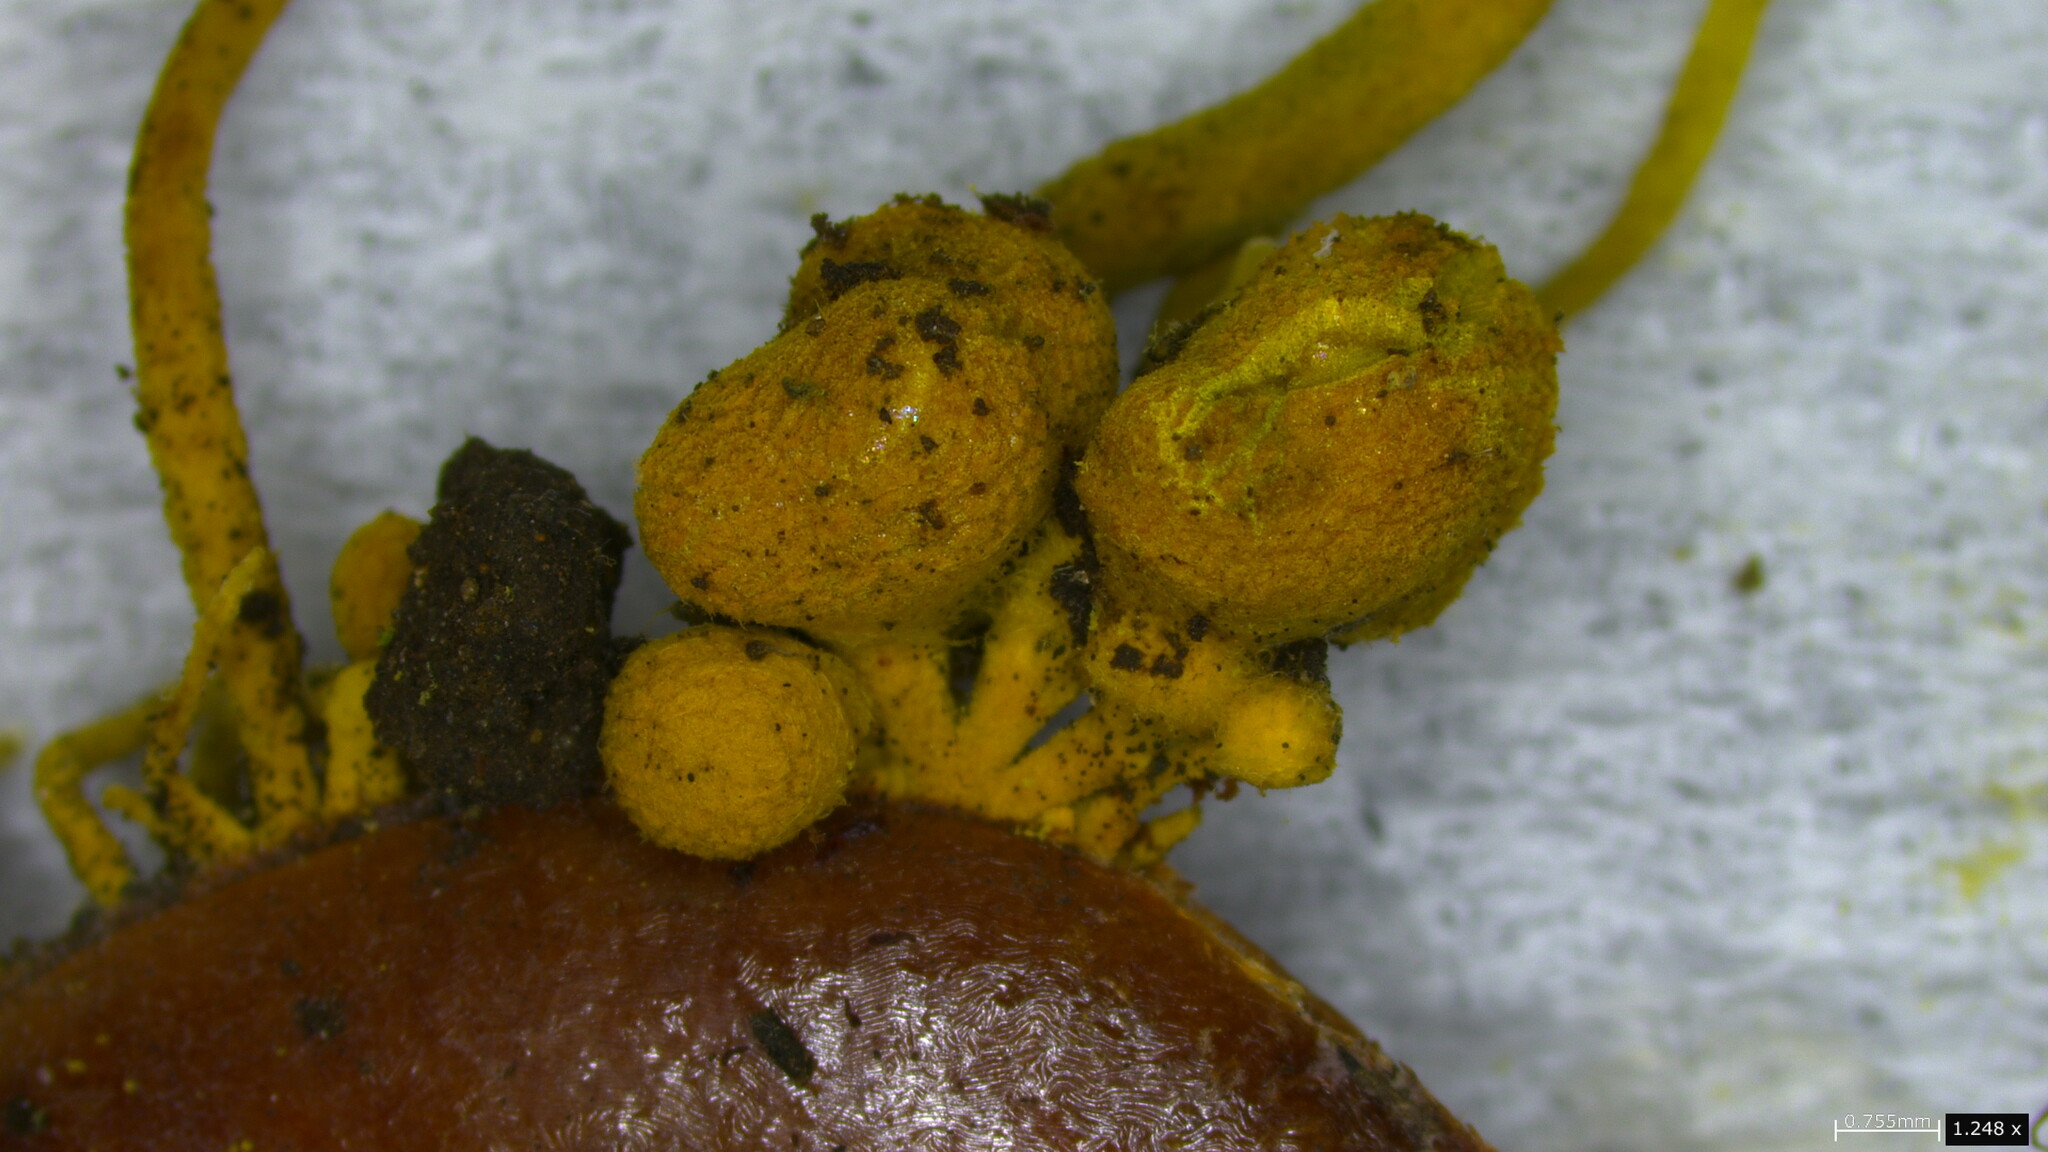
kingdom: Fungi
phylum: Ascomycota
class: Eurotiomycetes
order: Eurotiales
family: Aspergillaceae
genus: Penicilliopsis
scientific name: Penicilliopsis clavariiformis
